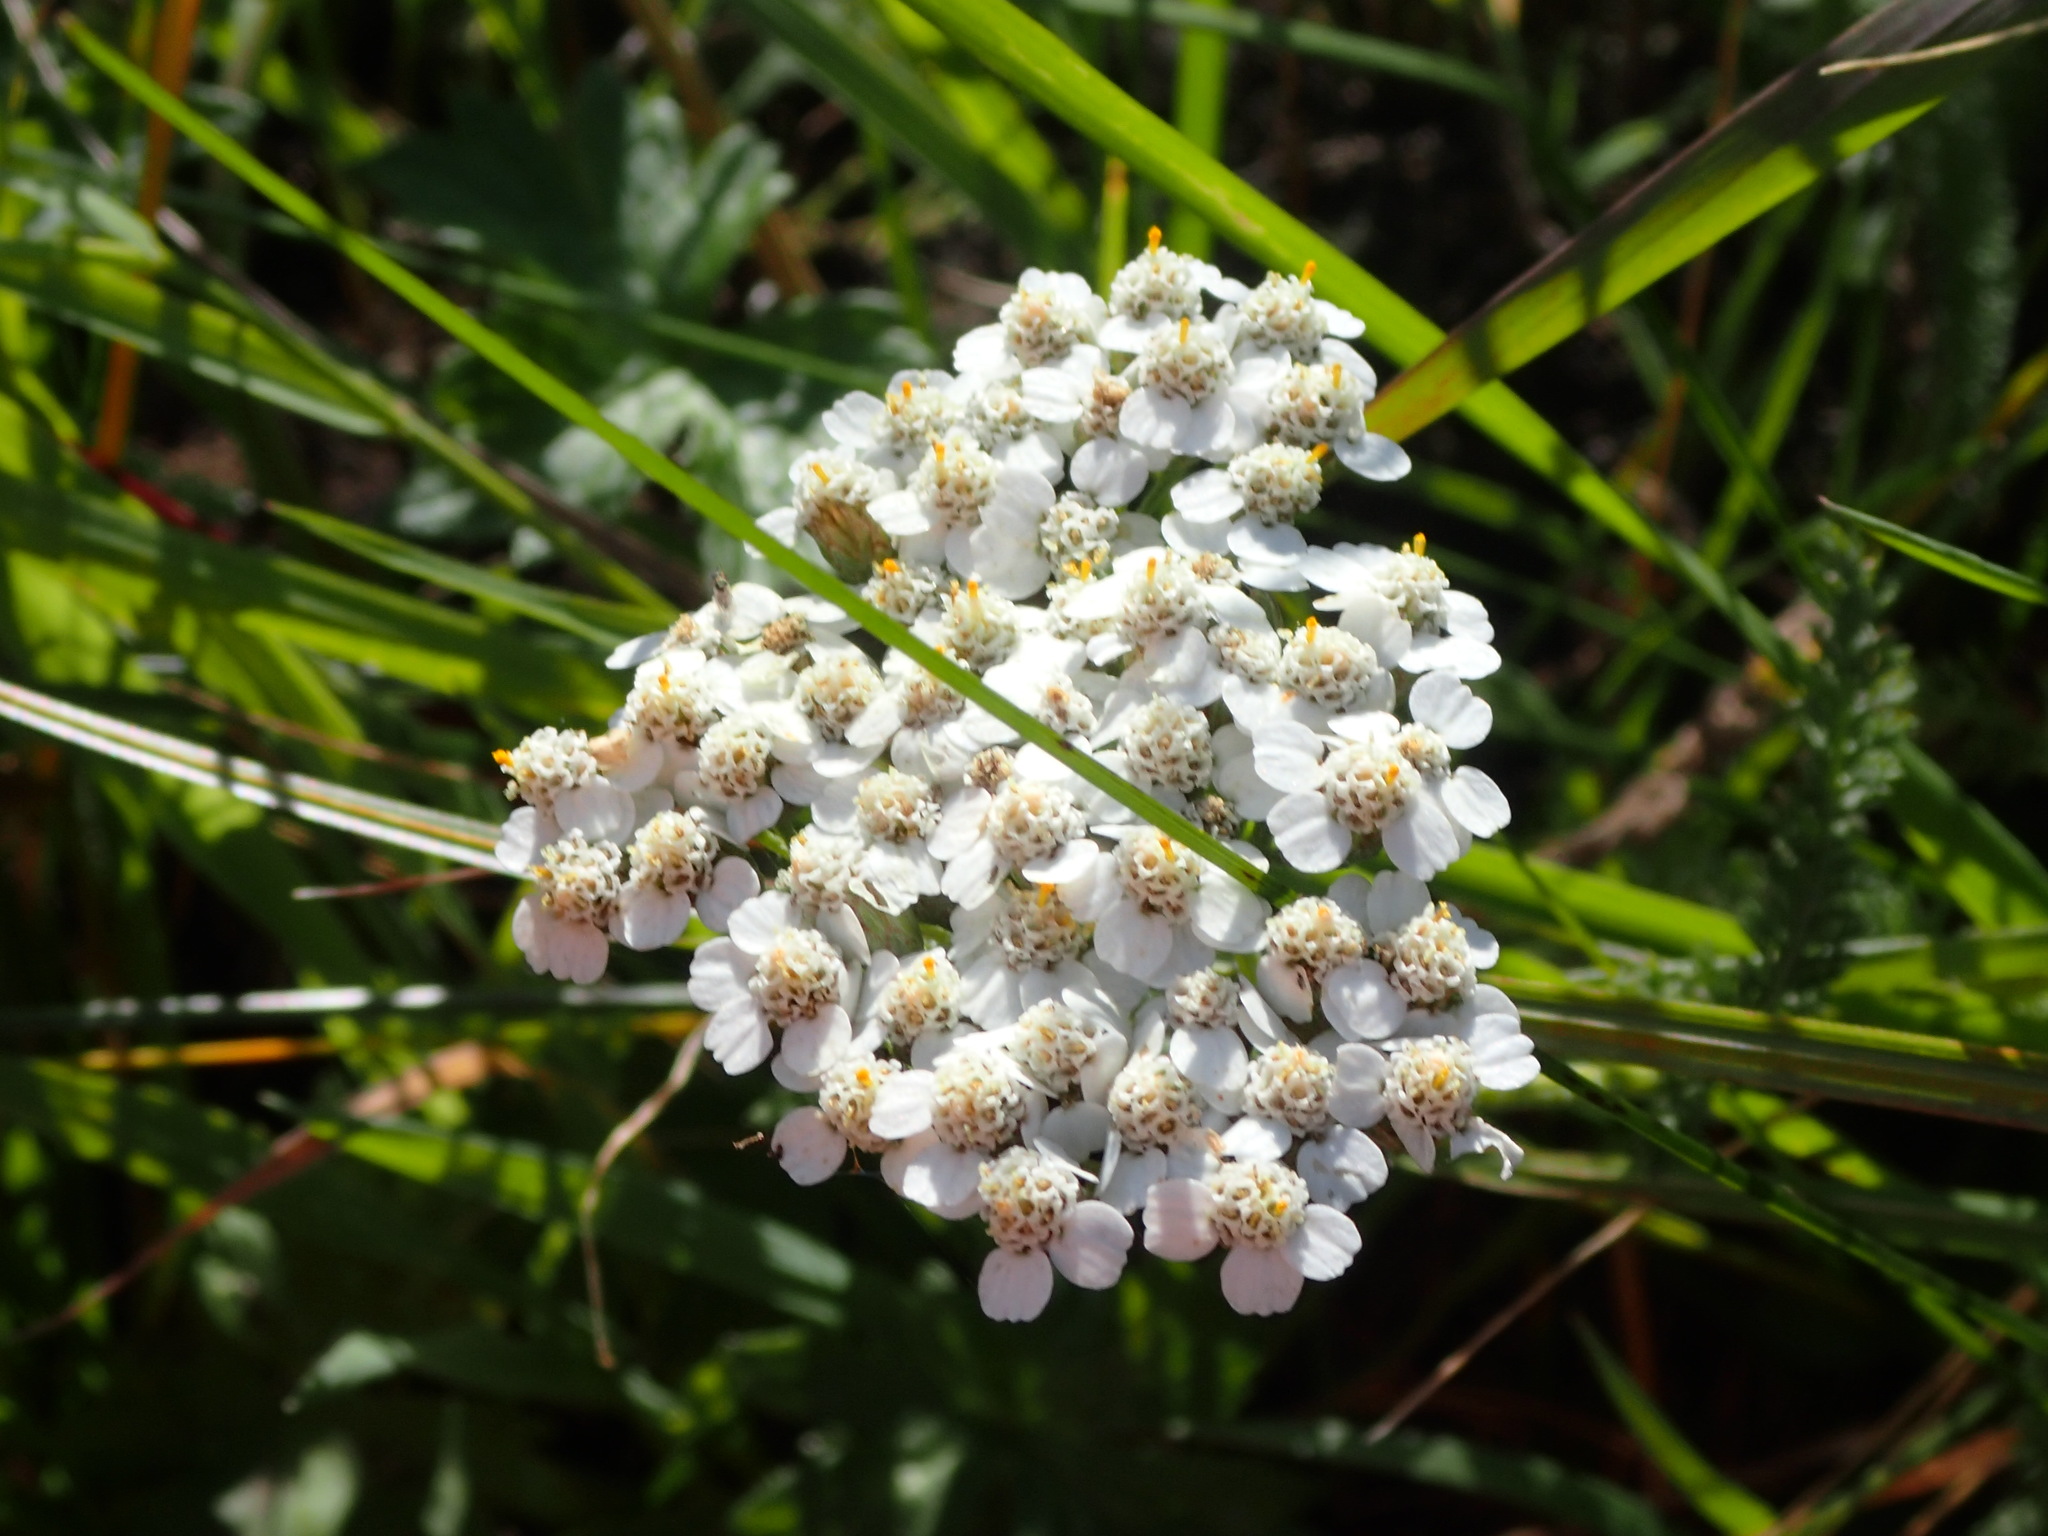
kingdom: Plantae
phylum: Tracheophyta
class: Magnoliopsida
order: Asterales
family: Asteraceae
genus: Achillea
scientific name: Achillea millefolium
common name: Yarrow
